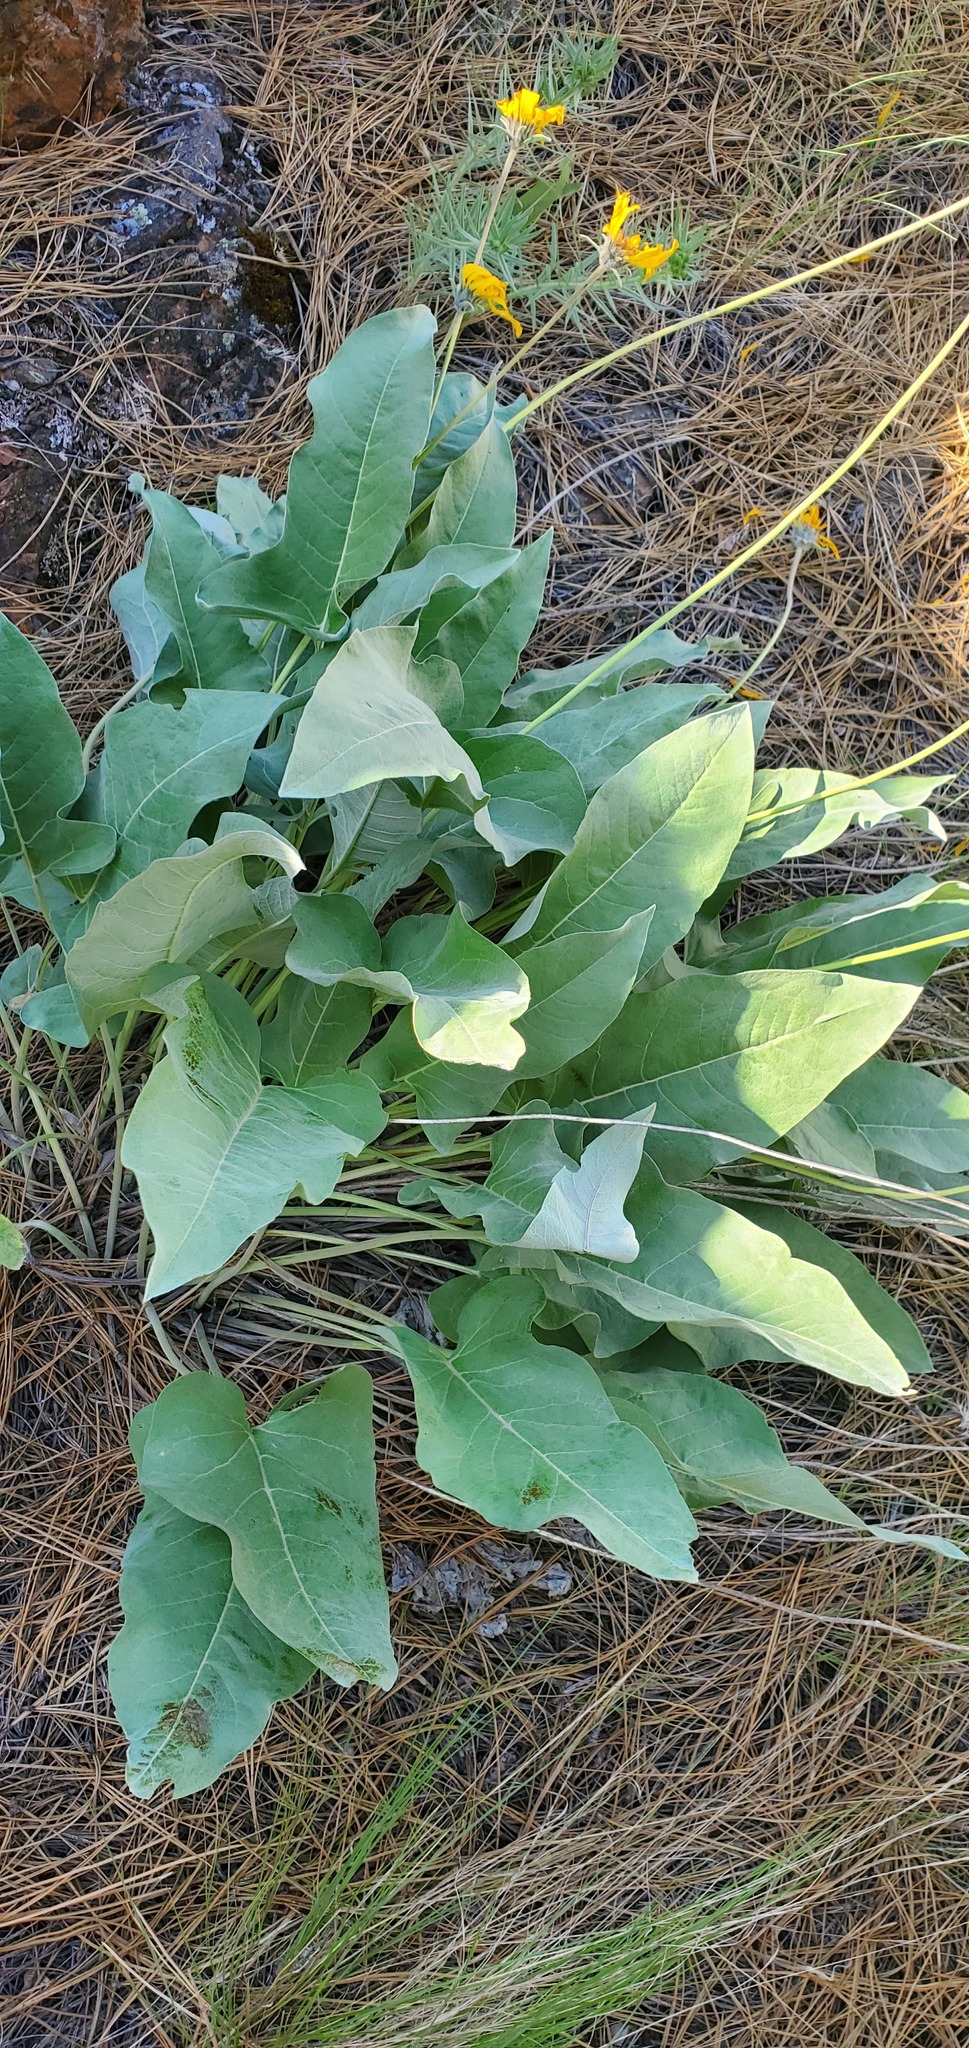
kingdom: Plantae
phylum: Tracheophyta
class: Magnoliopsida
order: Asterales
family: Asteraceae
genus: Wyethia
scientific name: Wyethia sagittata
